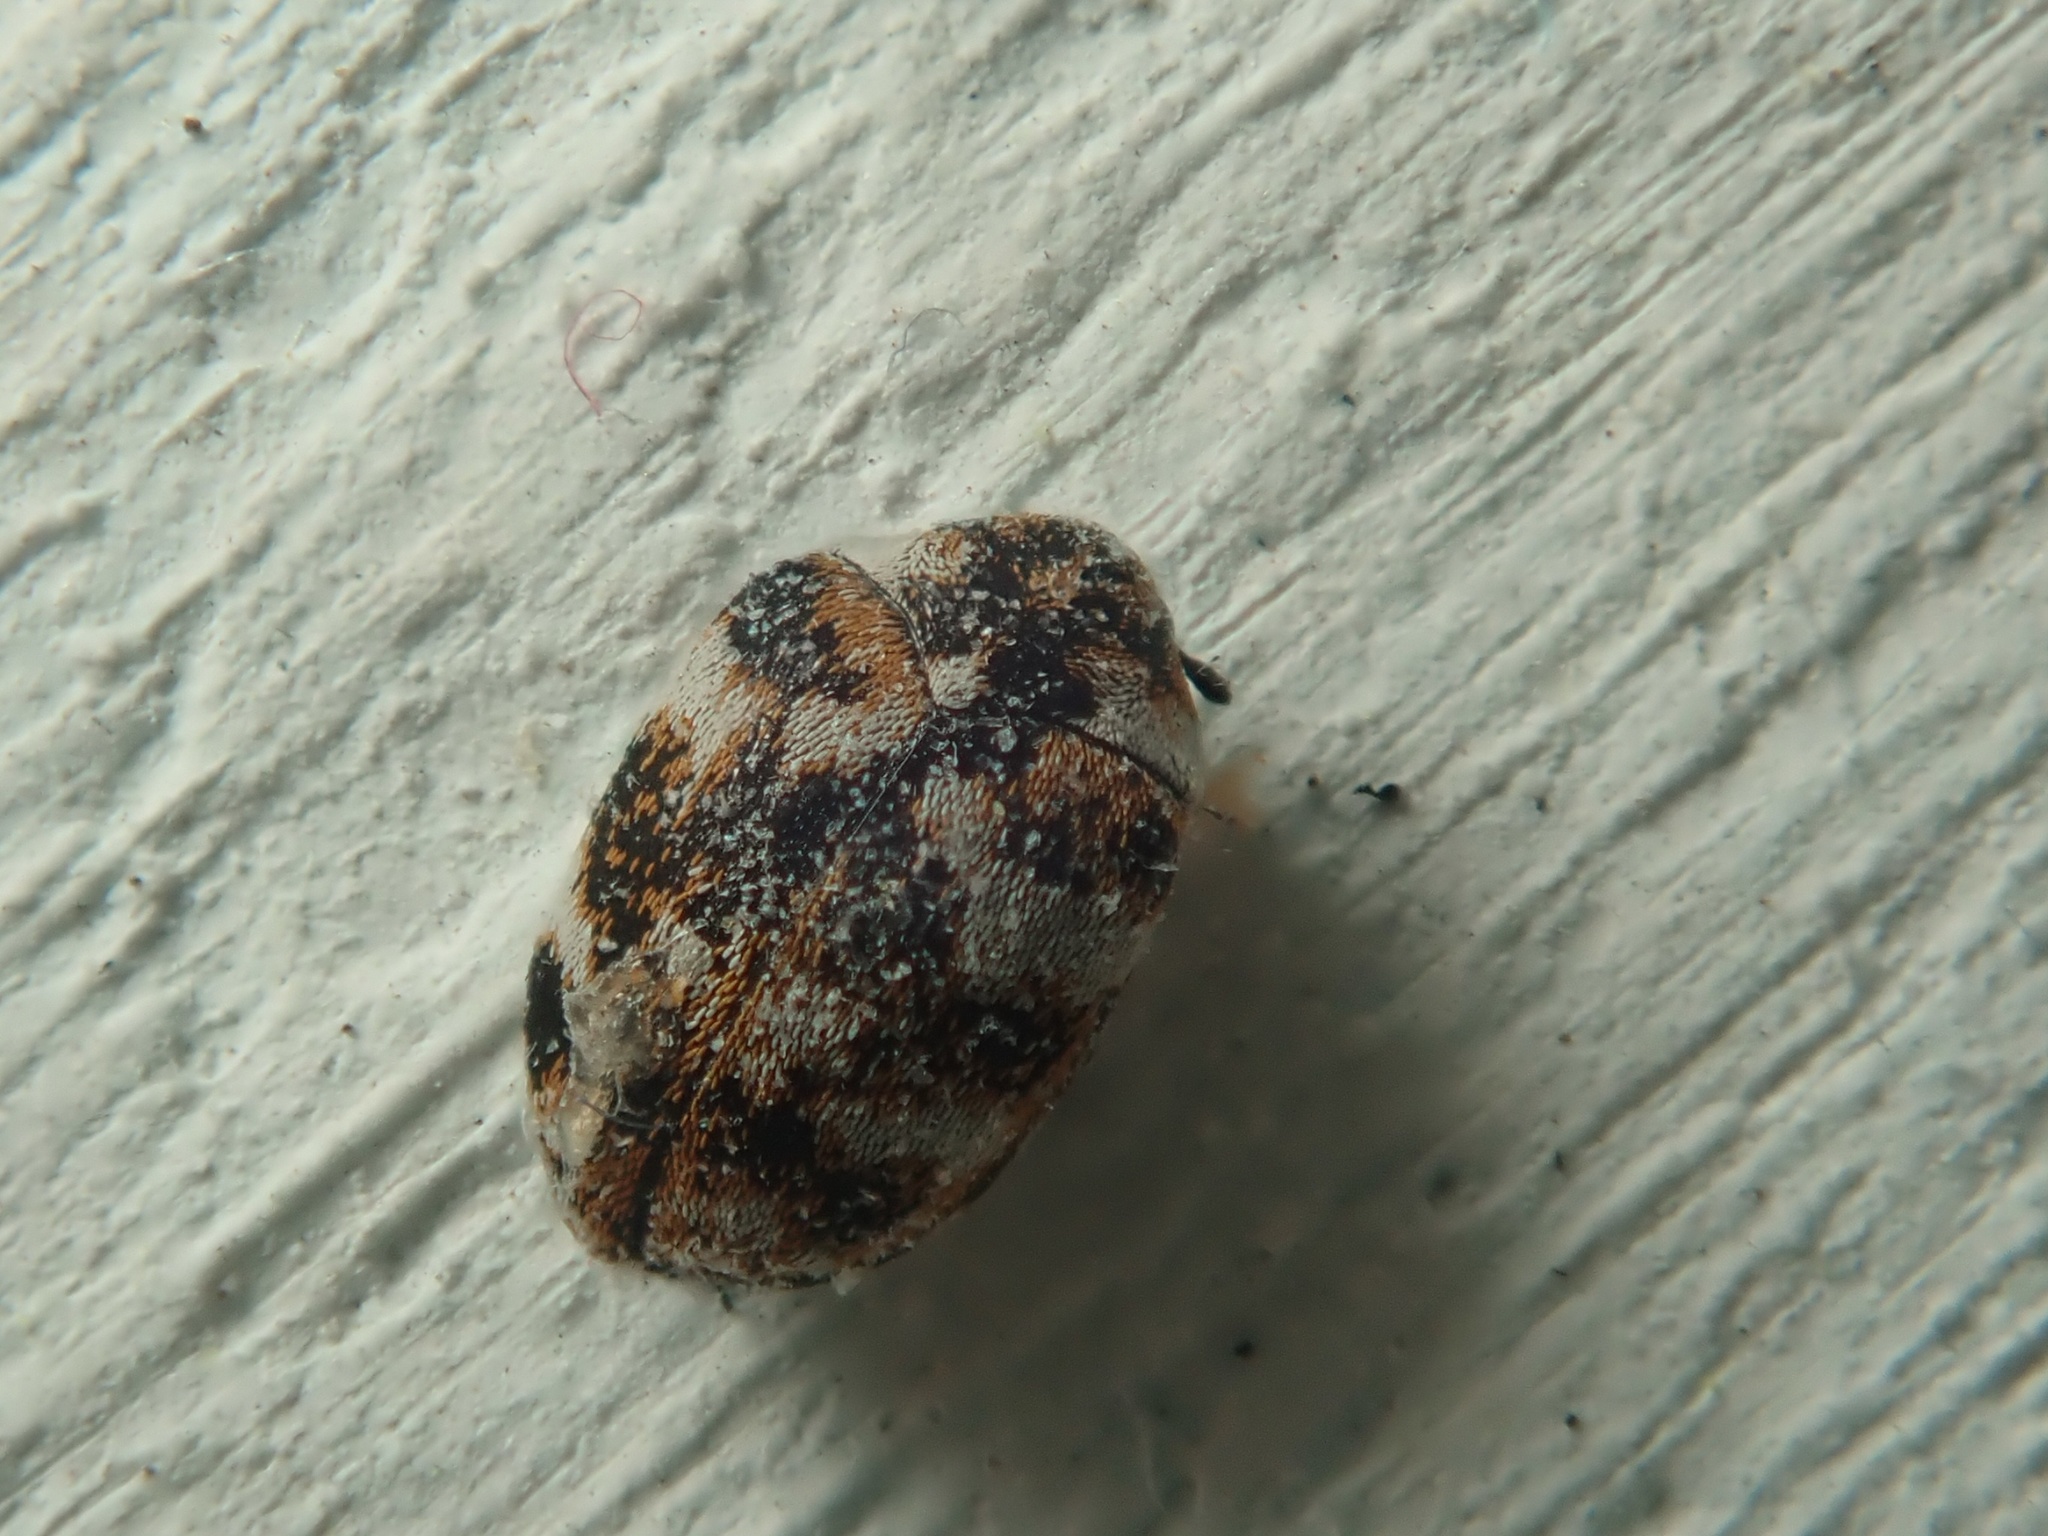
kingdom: Animalia
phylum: Arthropoda
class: Insecta
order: Coleoptera
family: Dermestidae
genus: Anthrenus
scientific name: Anthrenus verbasci
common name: Varied carpet beetle
